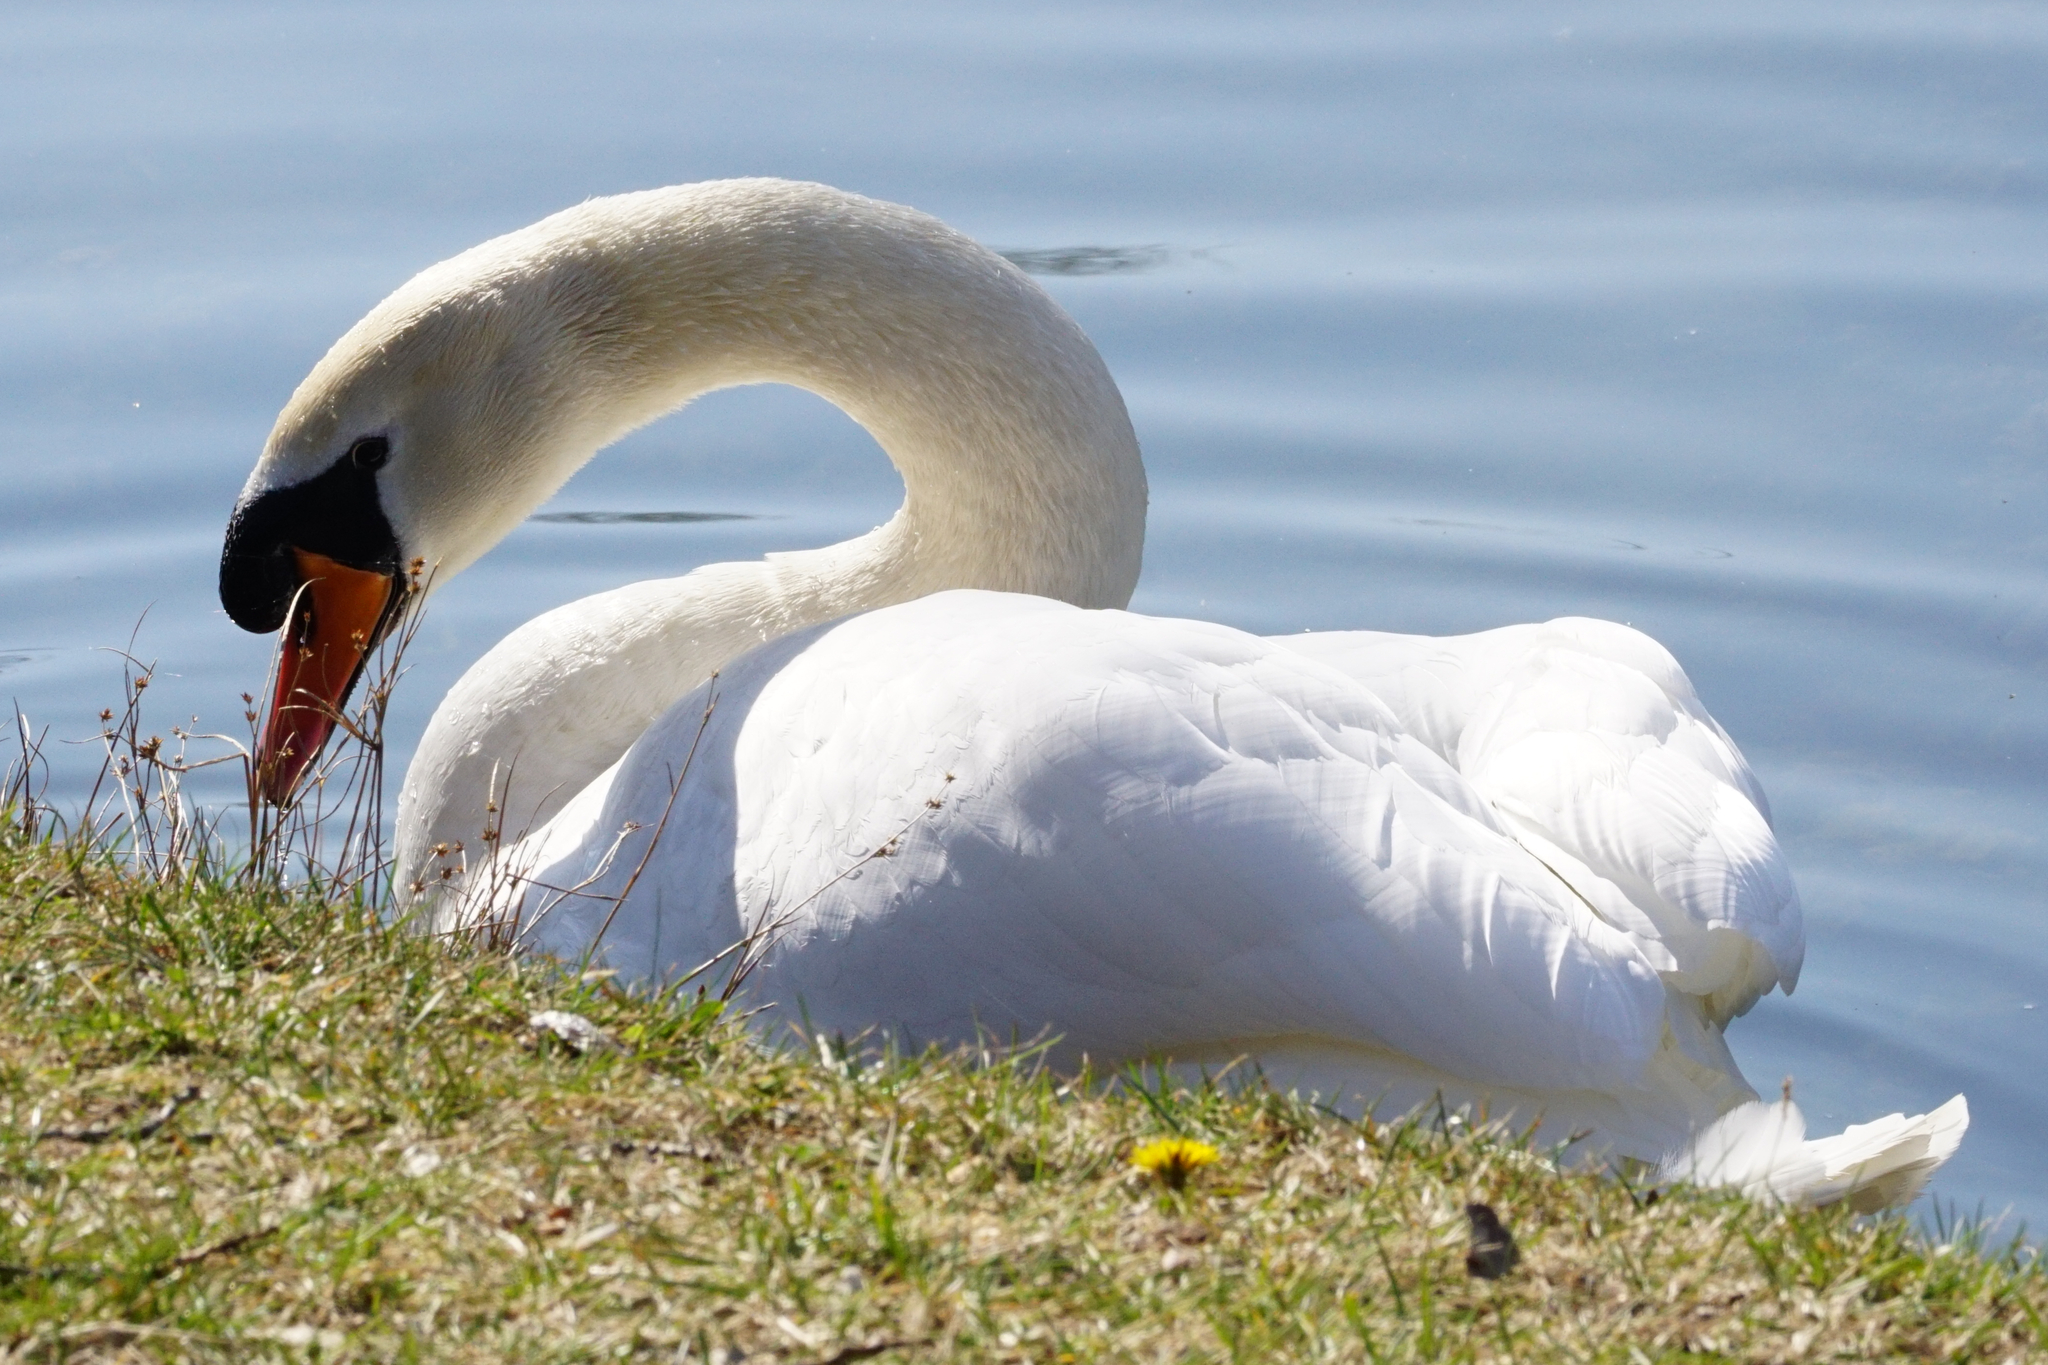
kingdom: Animalia
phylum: Chordata
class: Aves
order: Anseriformes
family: Anatidae
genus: Cygnus
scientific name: Cygnus olor
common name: Mute swan
